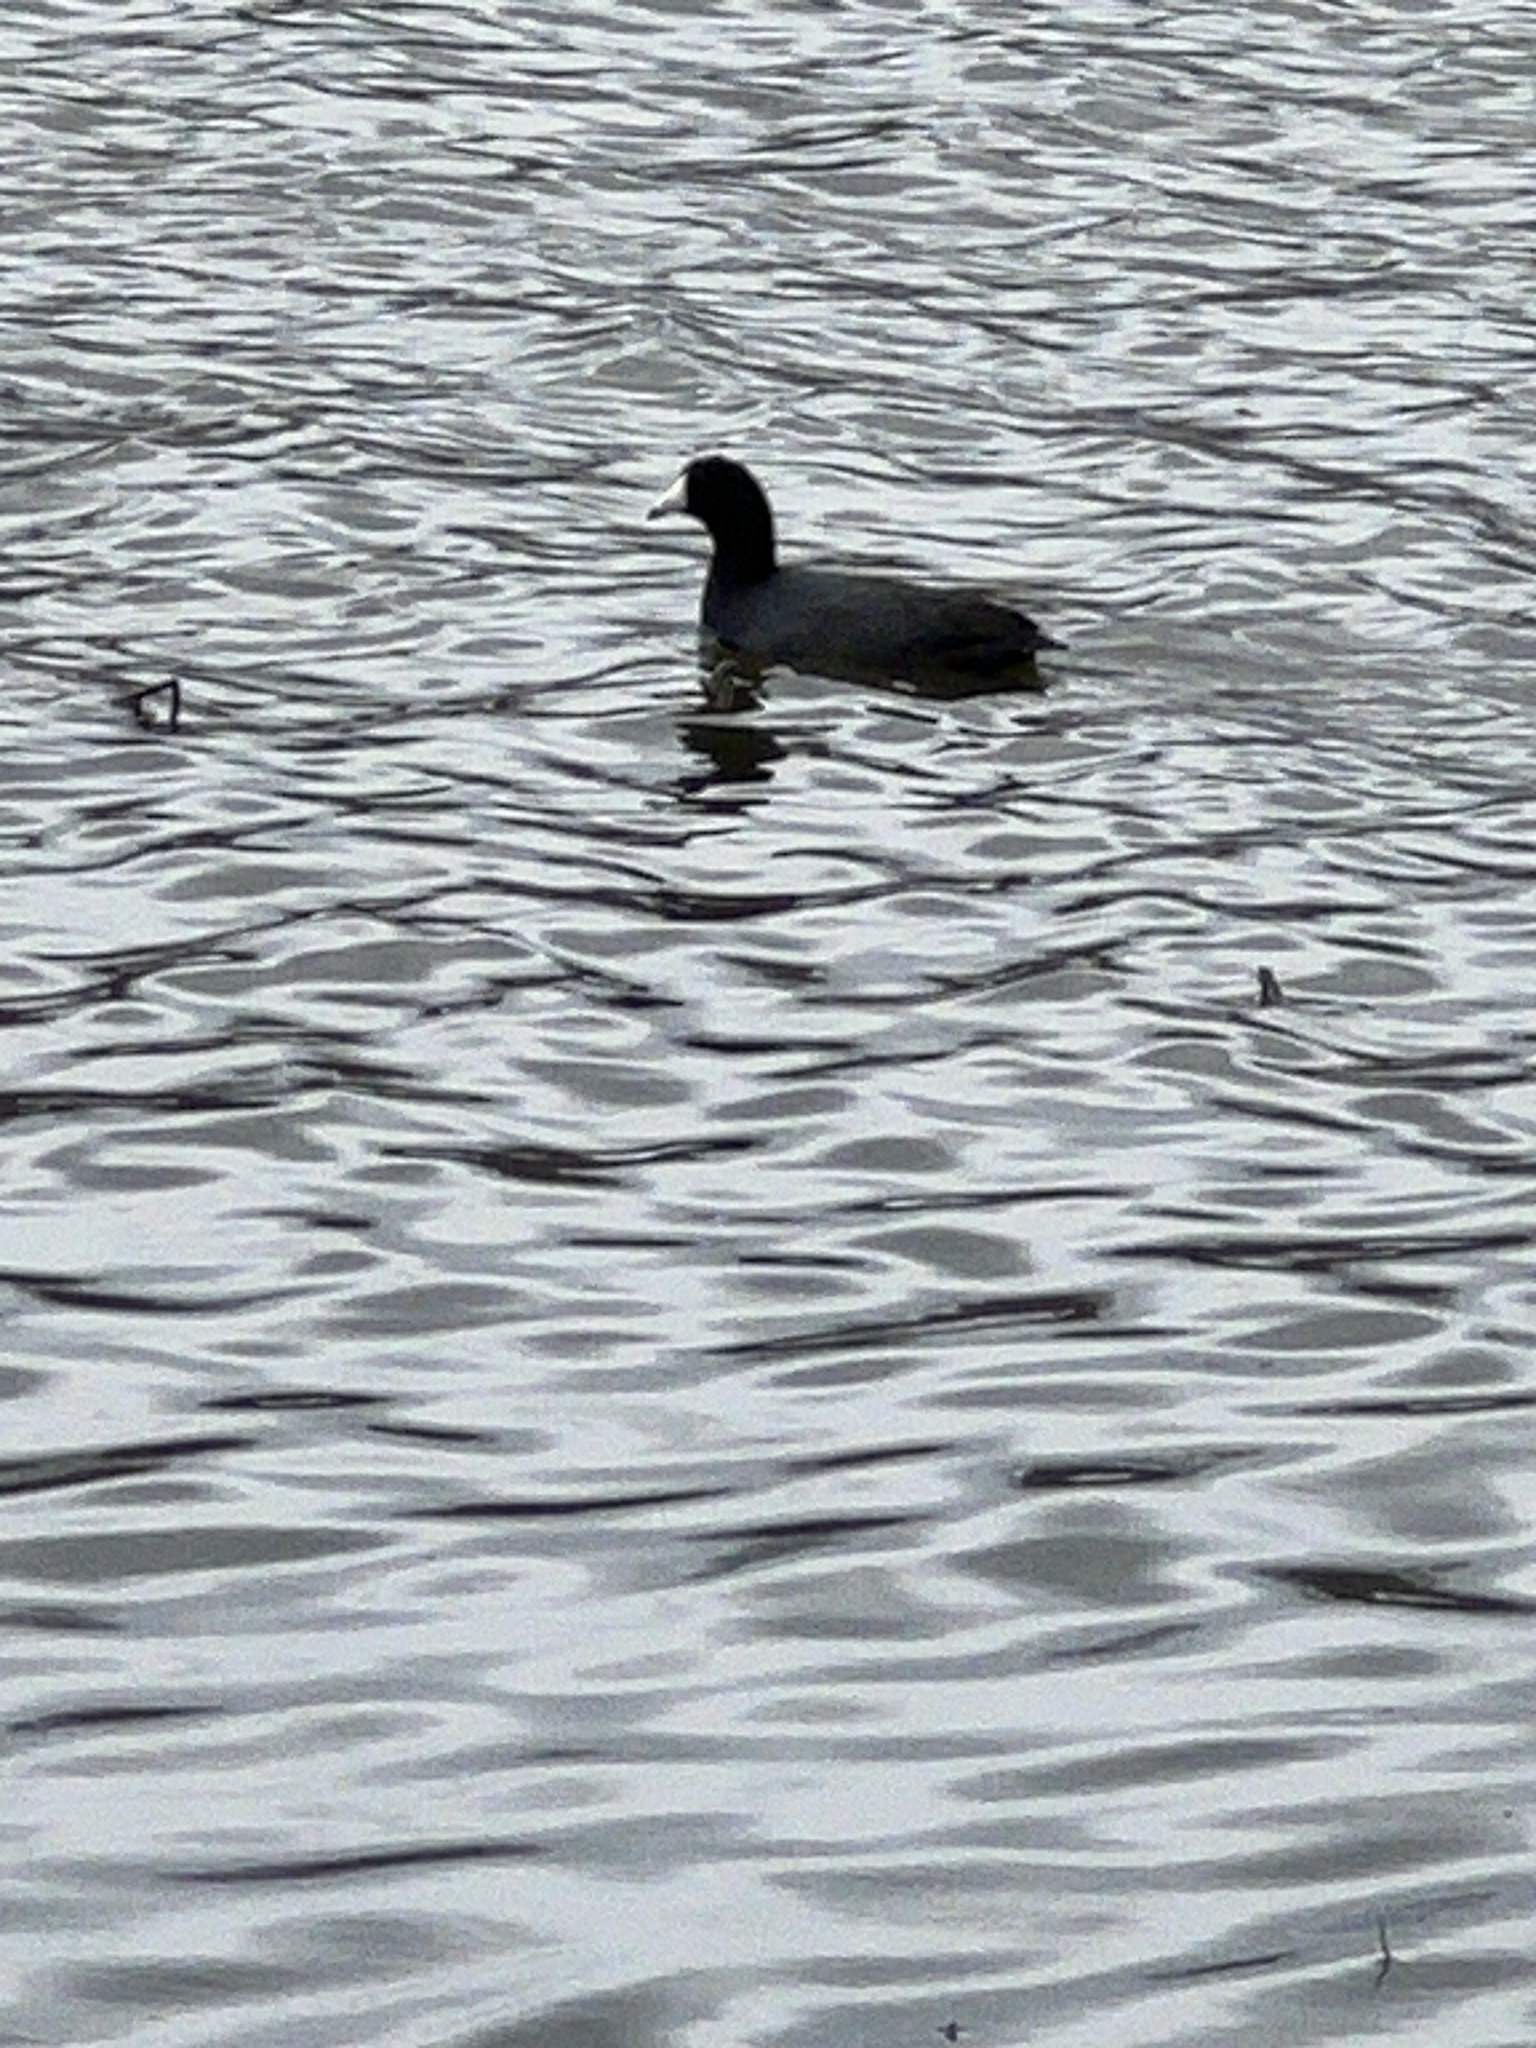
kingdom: Animalia
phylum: Chordata
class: Aves
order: Gruiformes
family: Rallidae
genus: Fulica
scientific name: Fulica americana
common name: American coot
